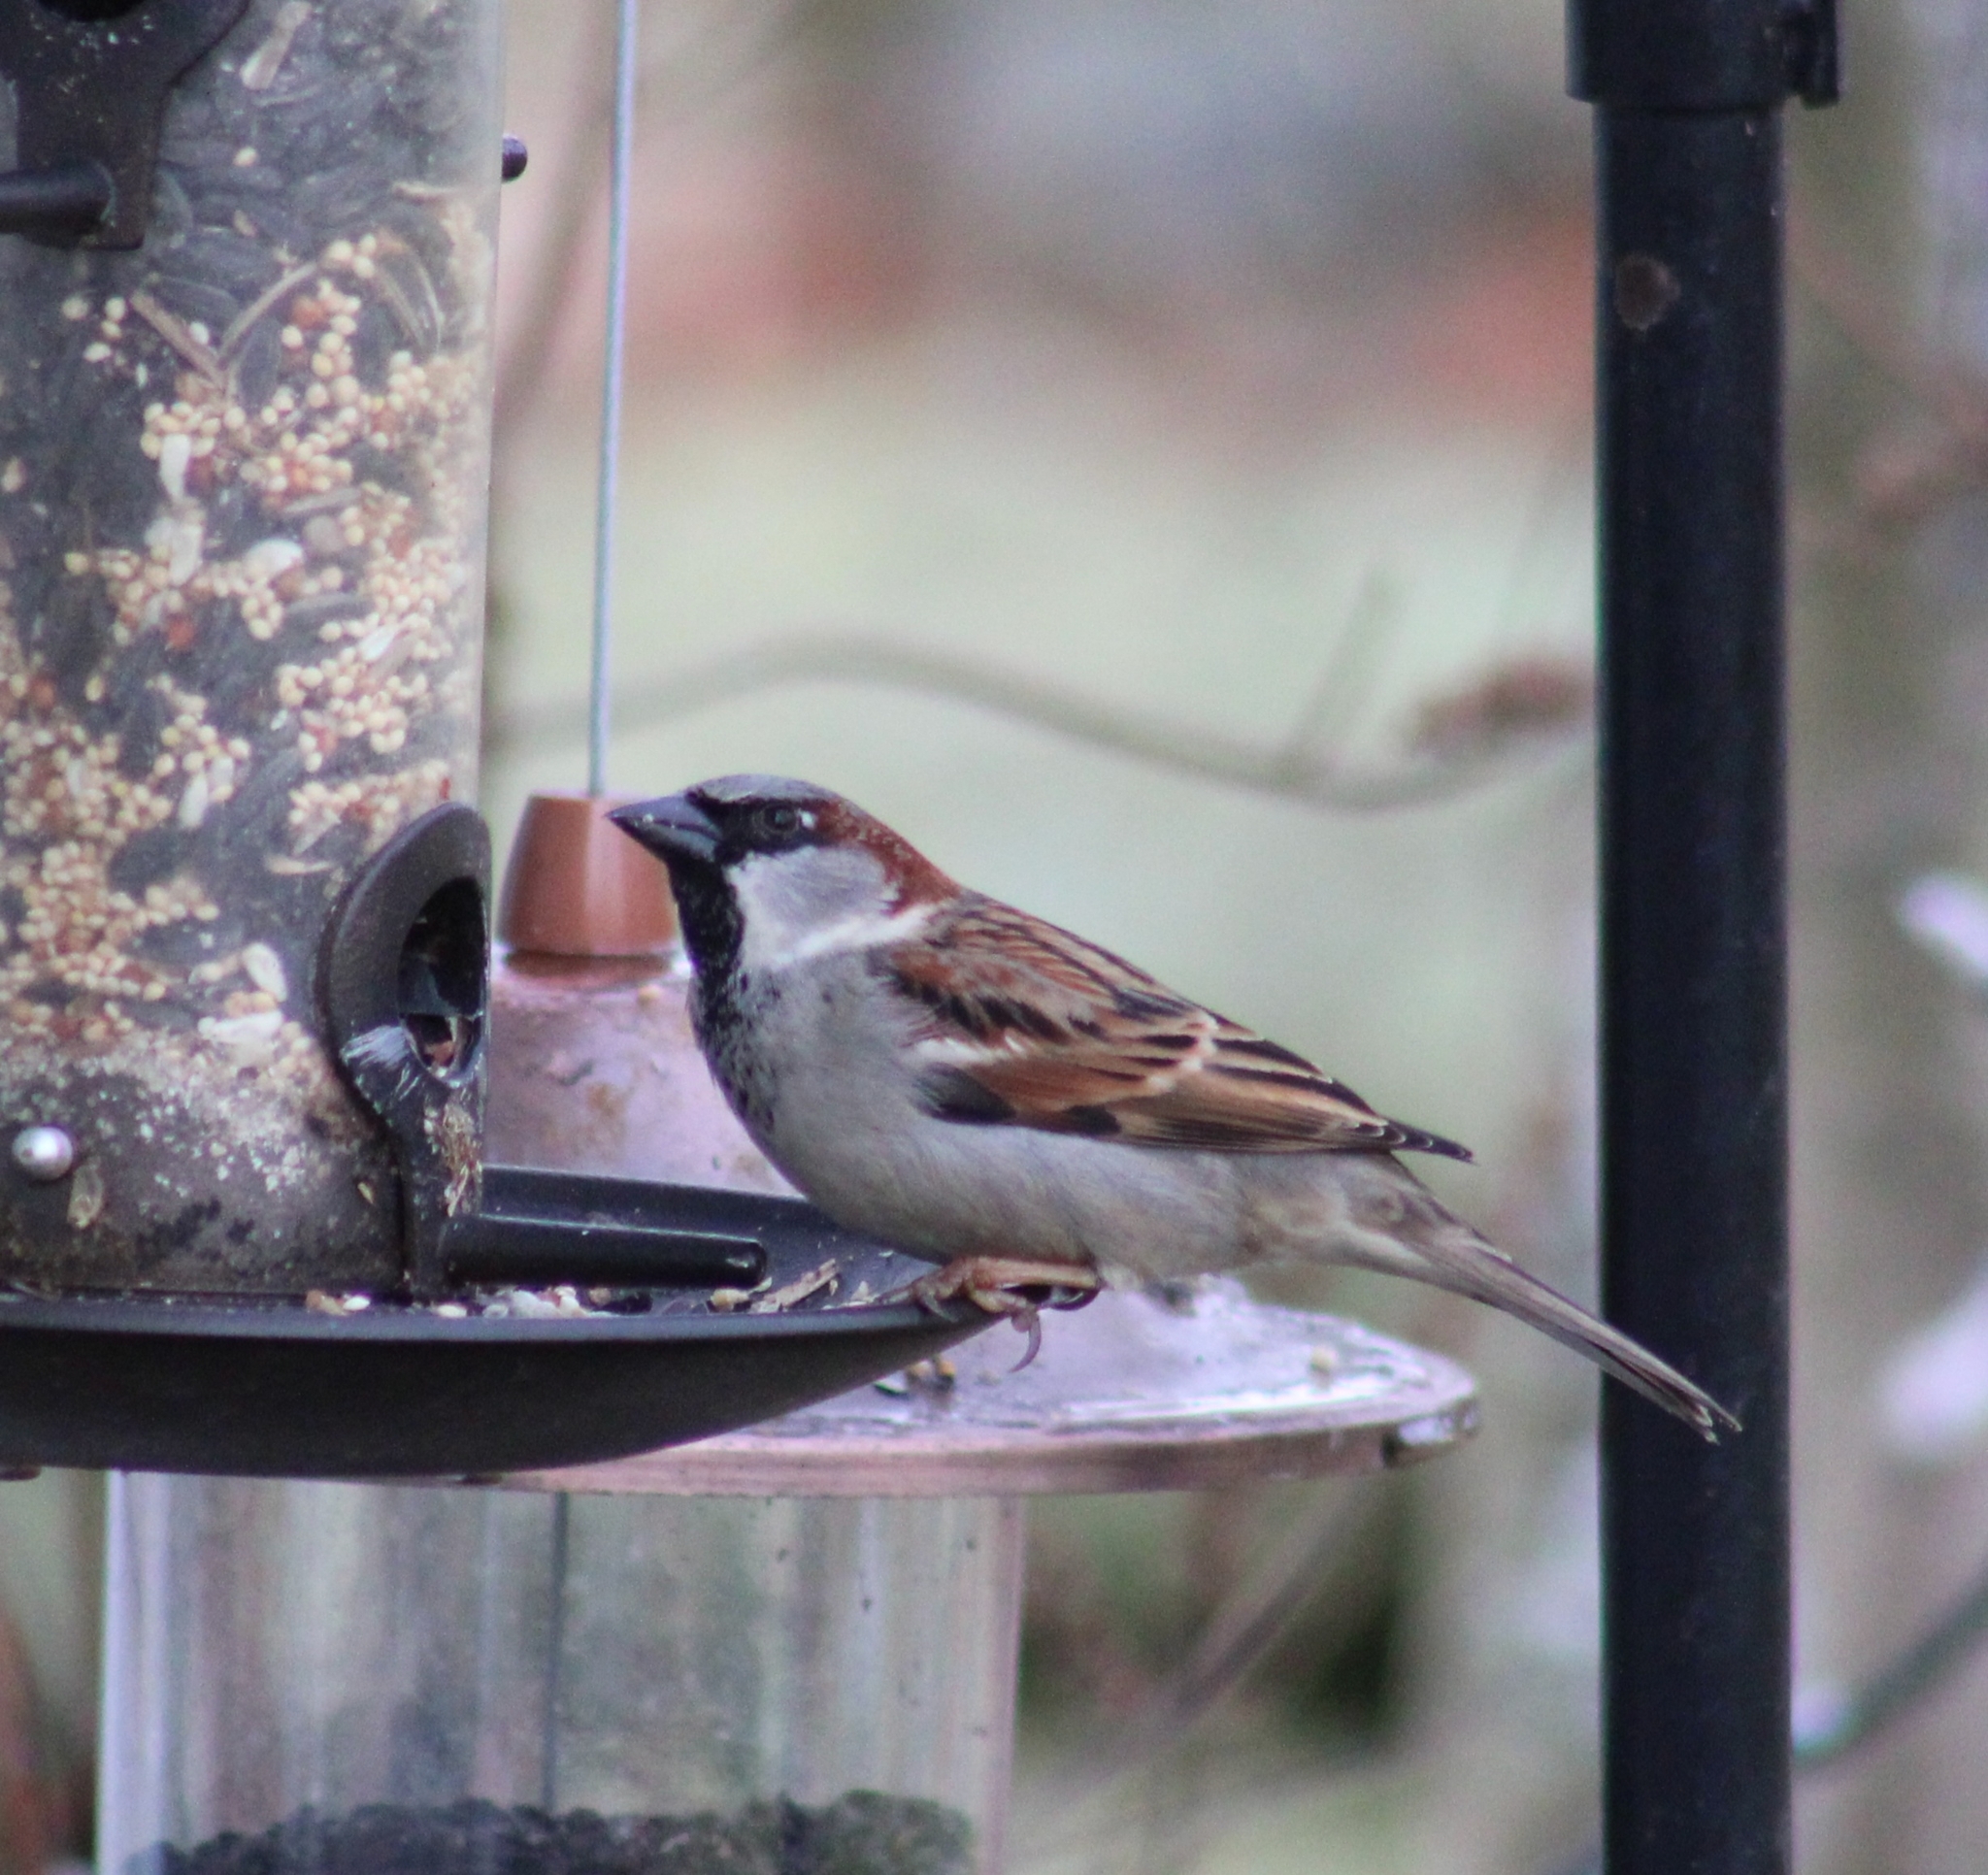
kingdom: Animalia
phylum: Chordata
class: Aves
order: Passeriformes
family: Passeridae
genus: Passer
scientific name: Passer domesticus
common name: House sparrow
